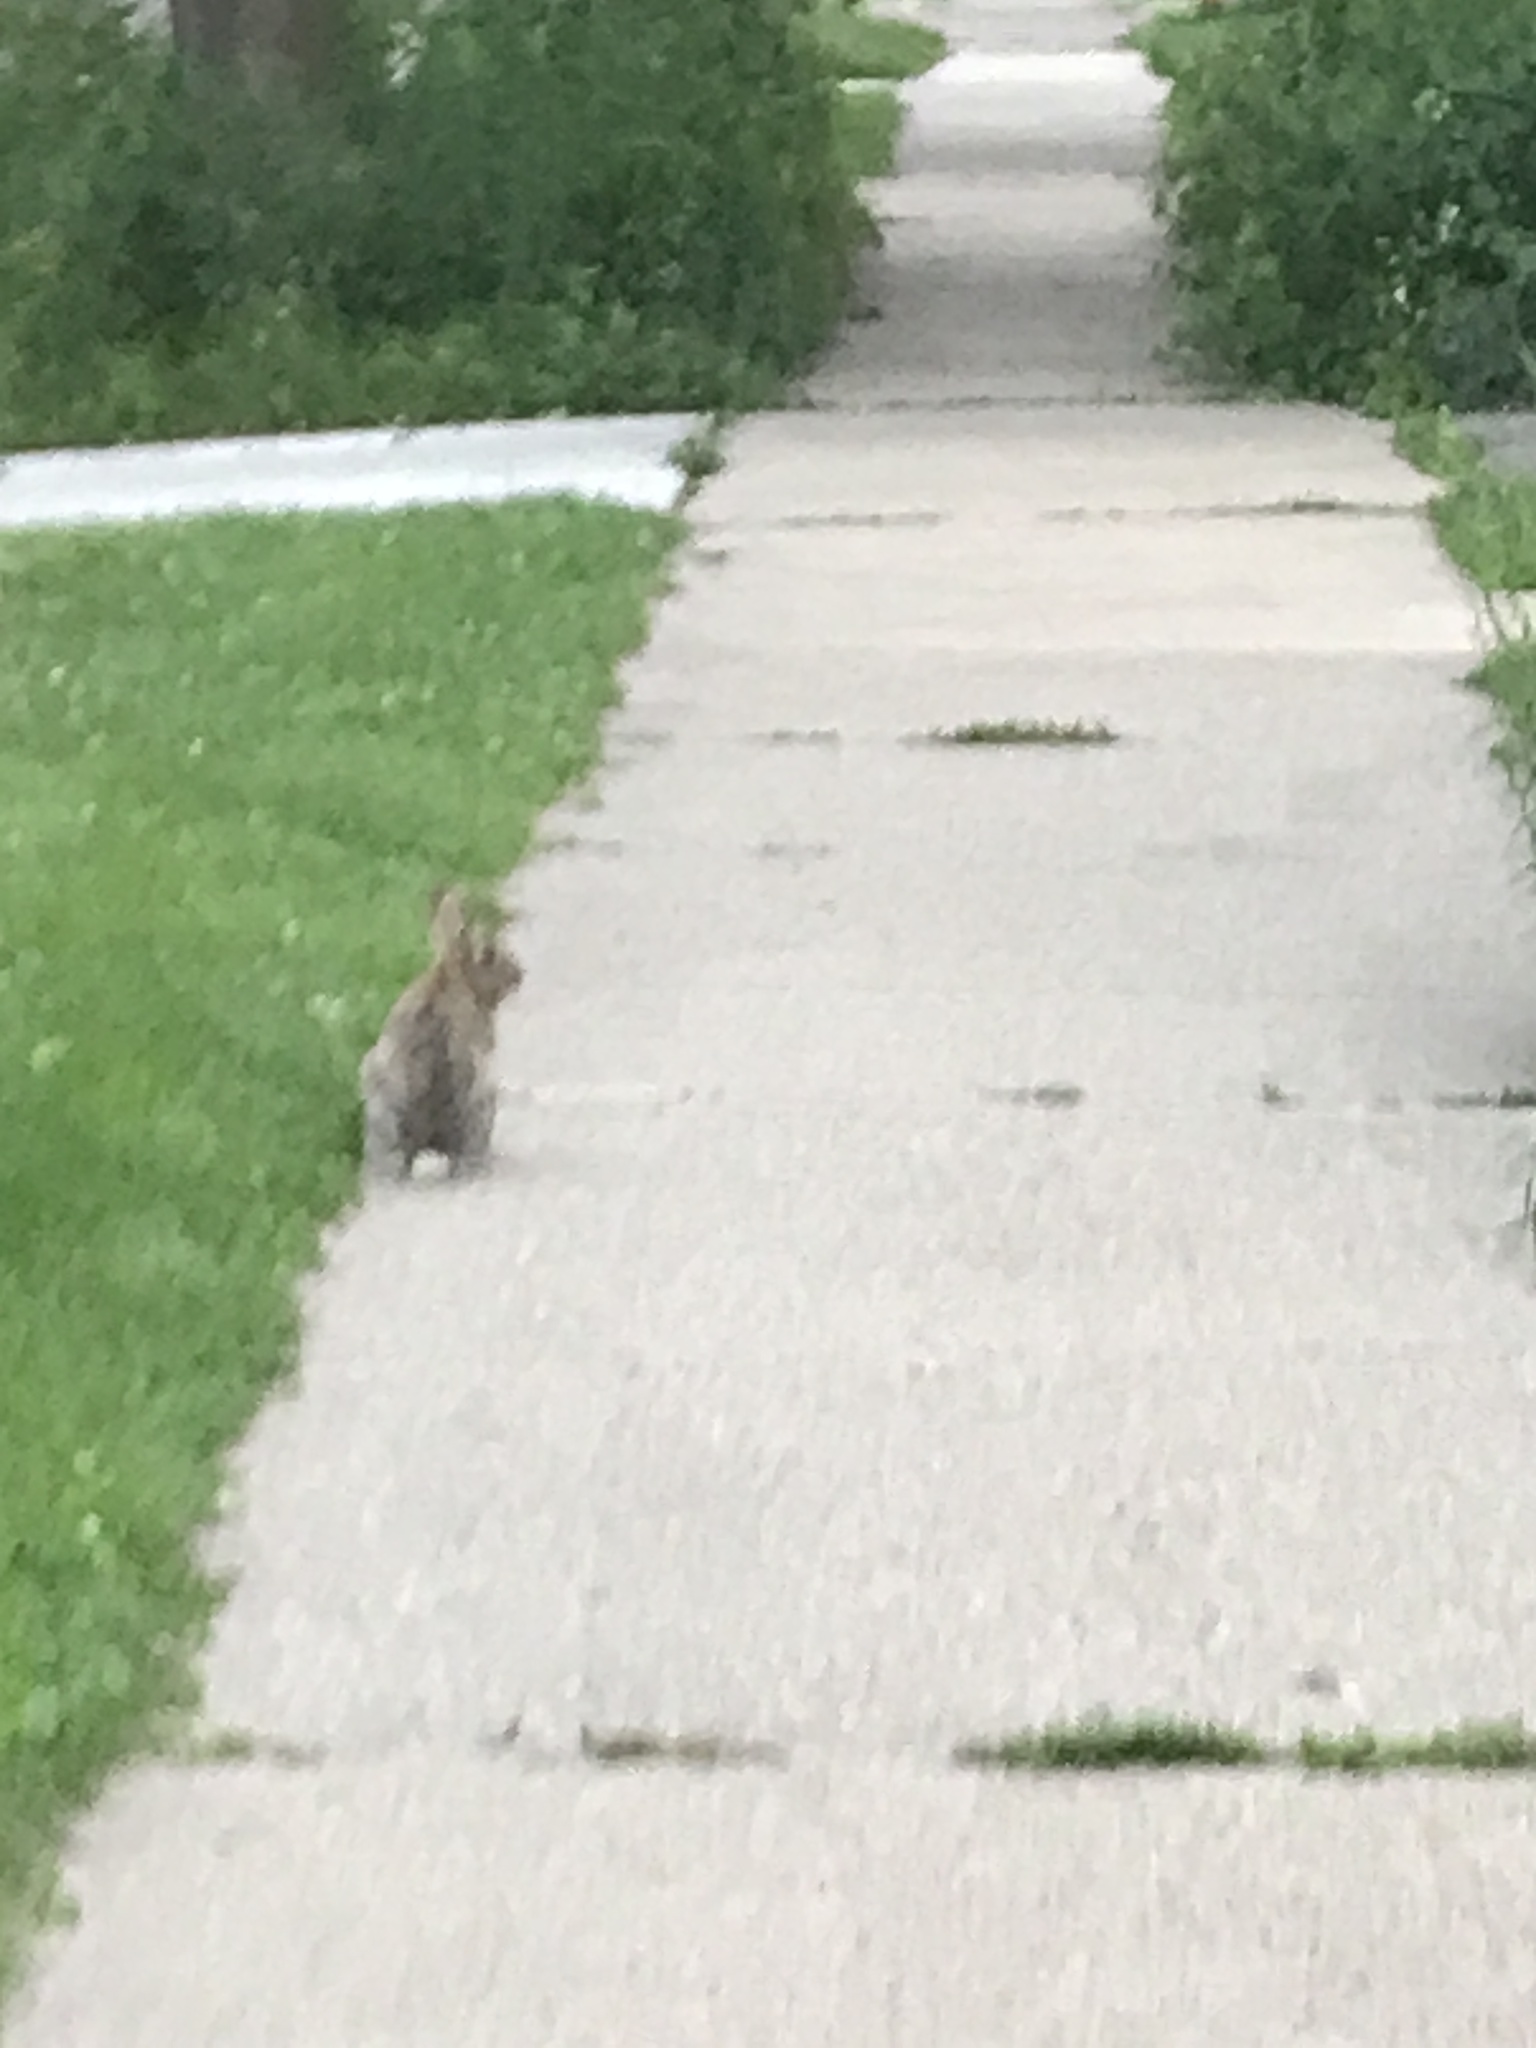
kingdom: Animalia
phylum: Chordata
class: Mammalia
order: Lagomorpha
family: Leporidae
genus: Sylvilagus
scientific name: Sylvilagus floridanus
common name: Eastern cottontail
